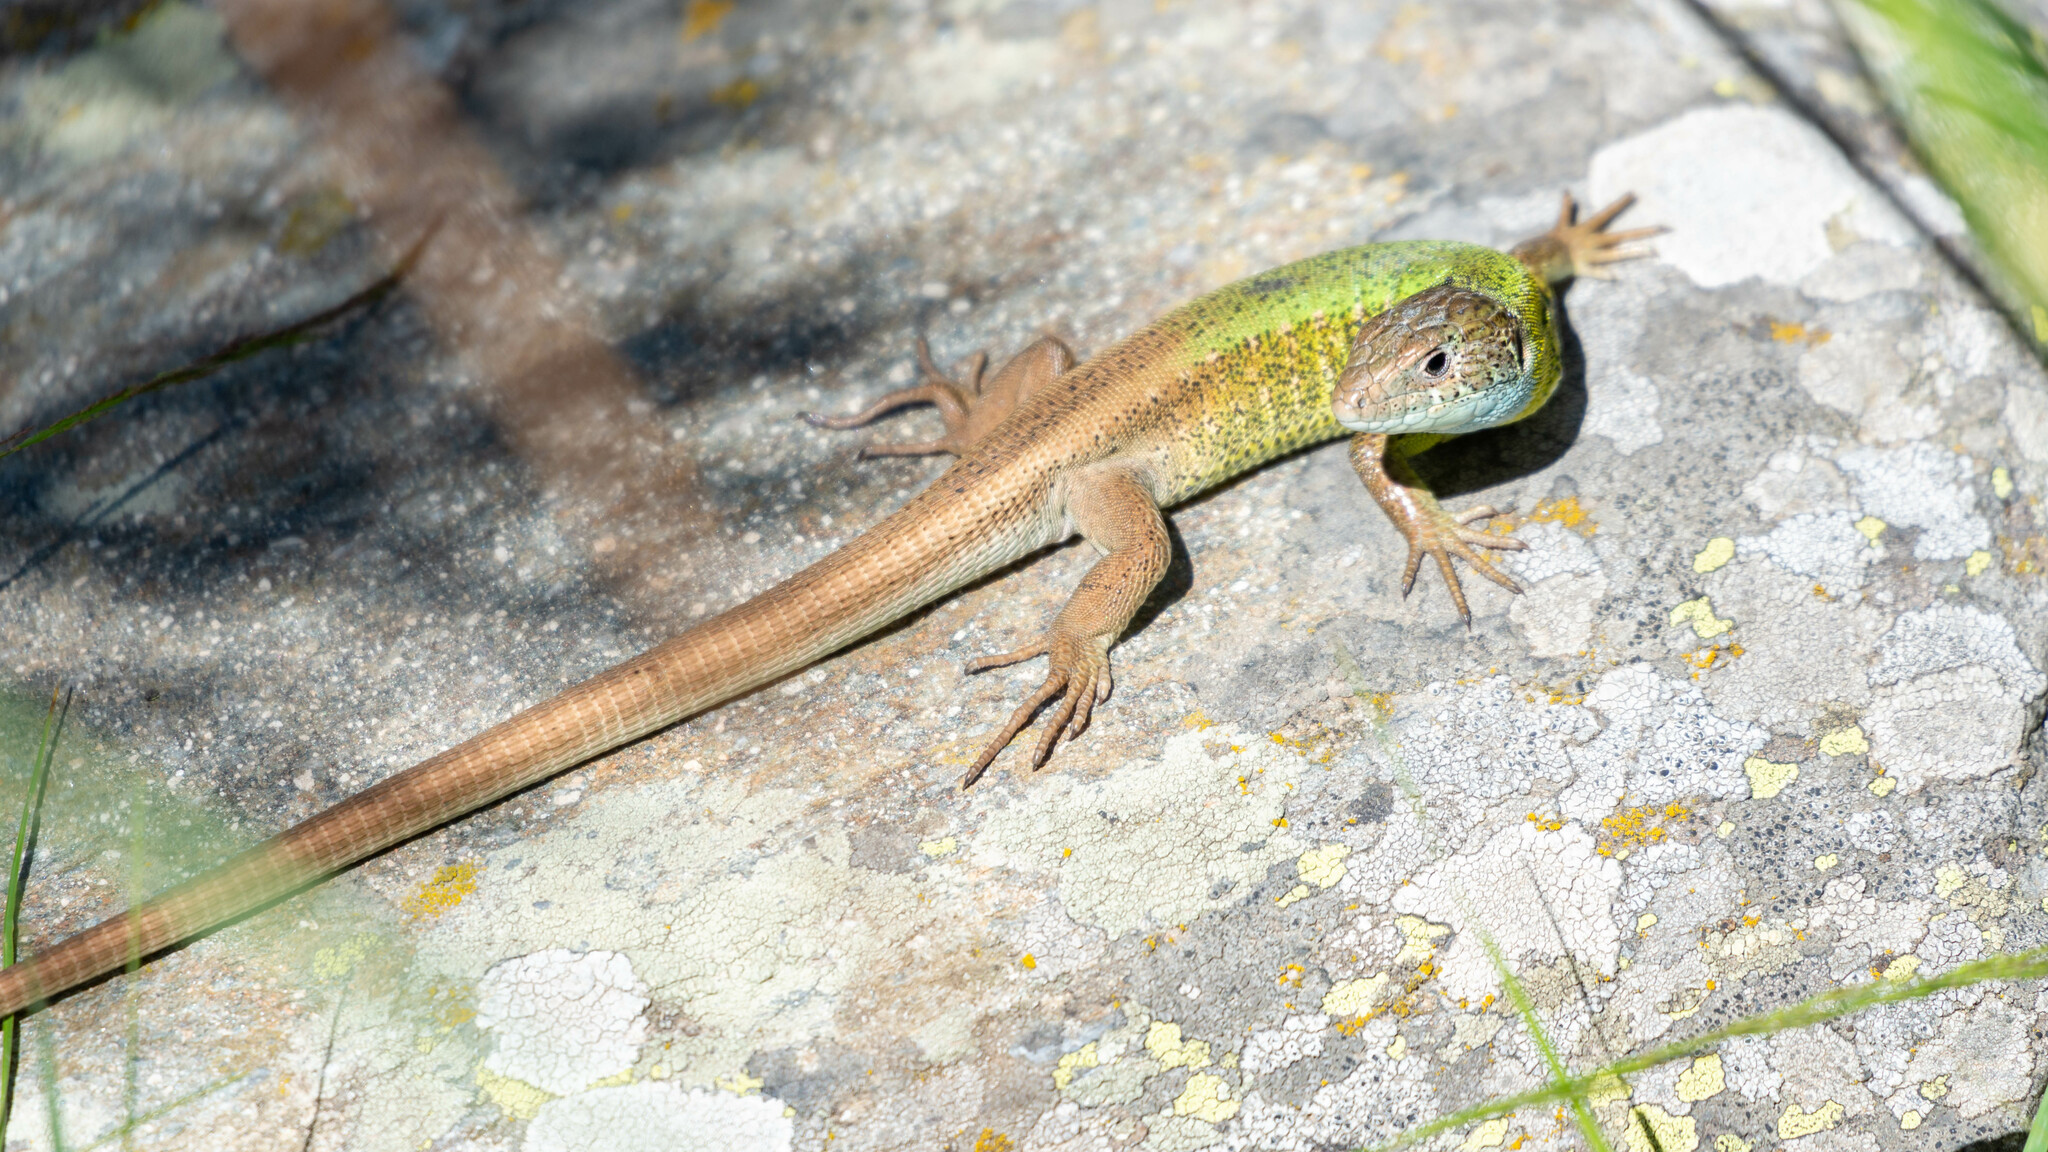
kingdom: Animalia
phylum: Chordata
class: Squamata
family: Lacertidae
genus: Lacerta
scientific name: Lacerta schreiberi
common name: Iberian emerald lizard
